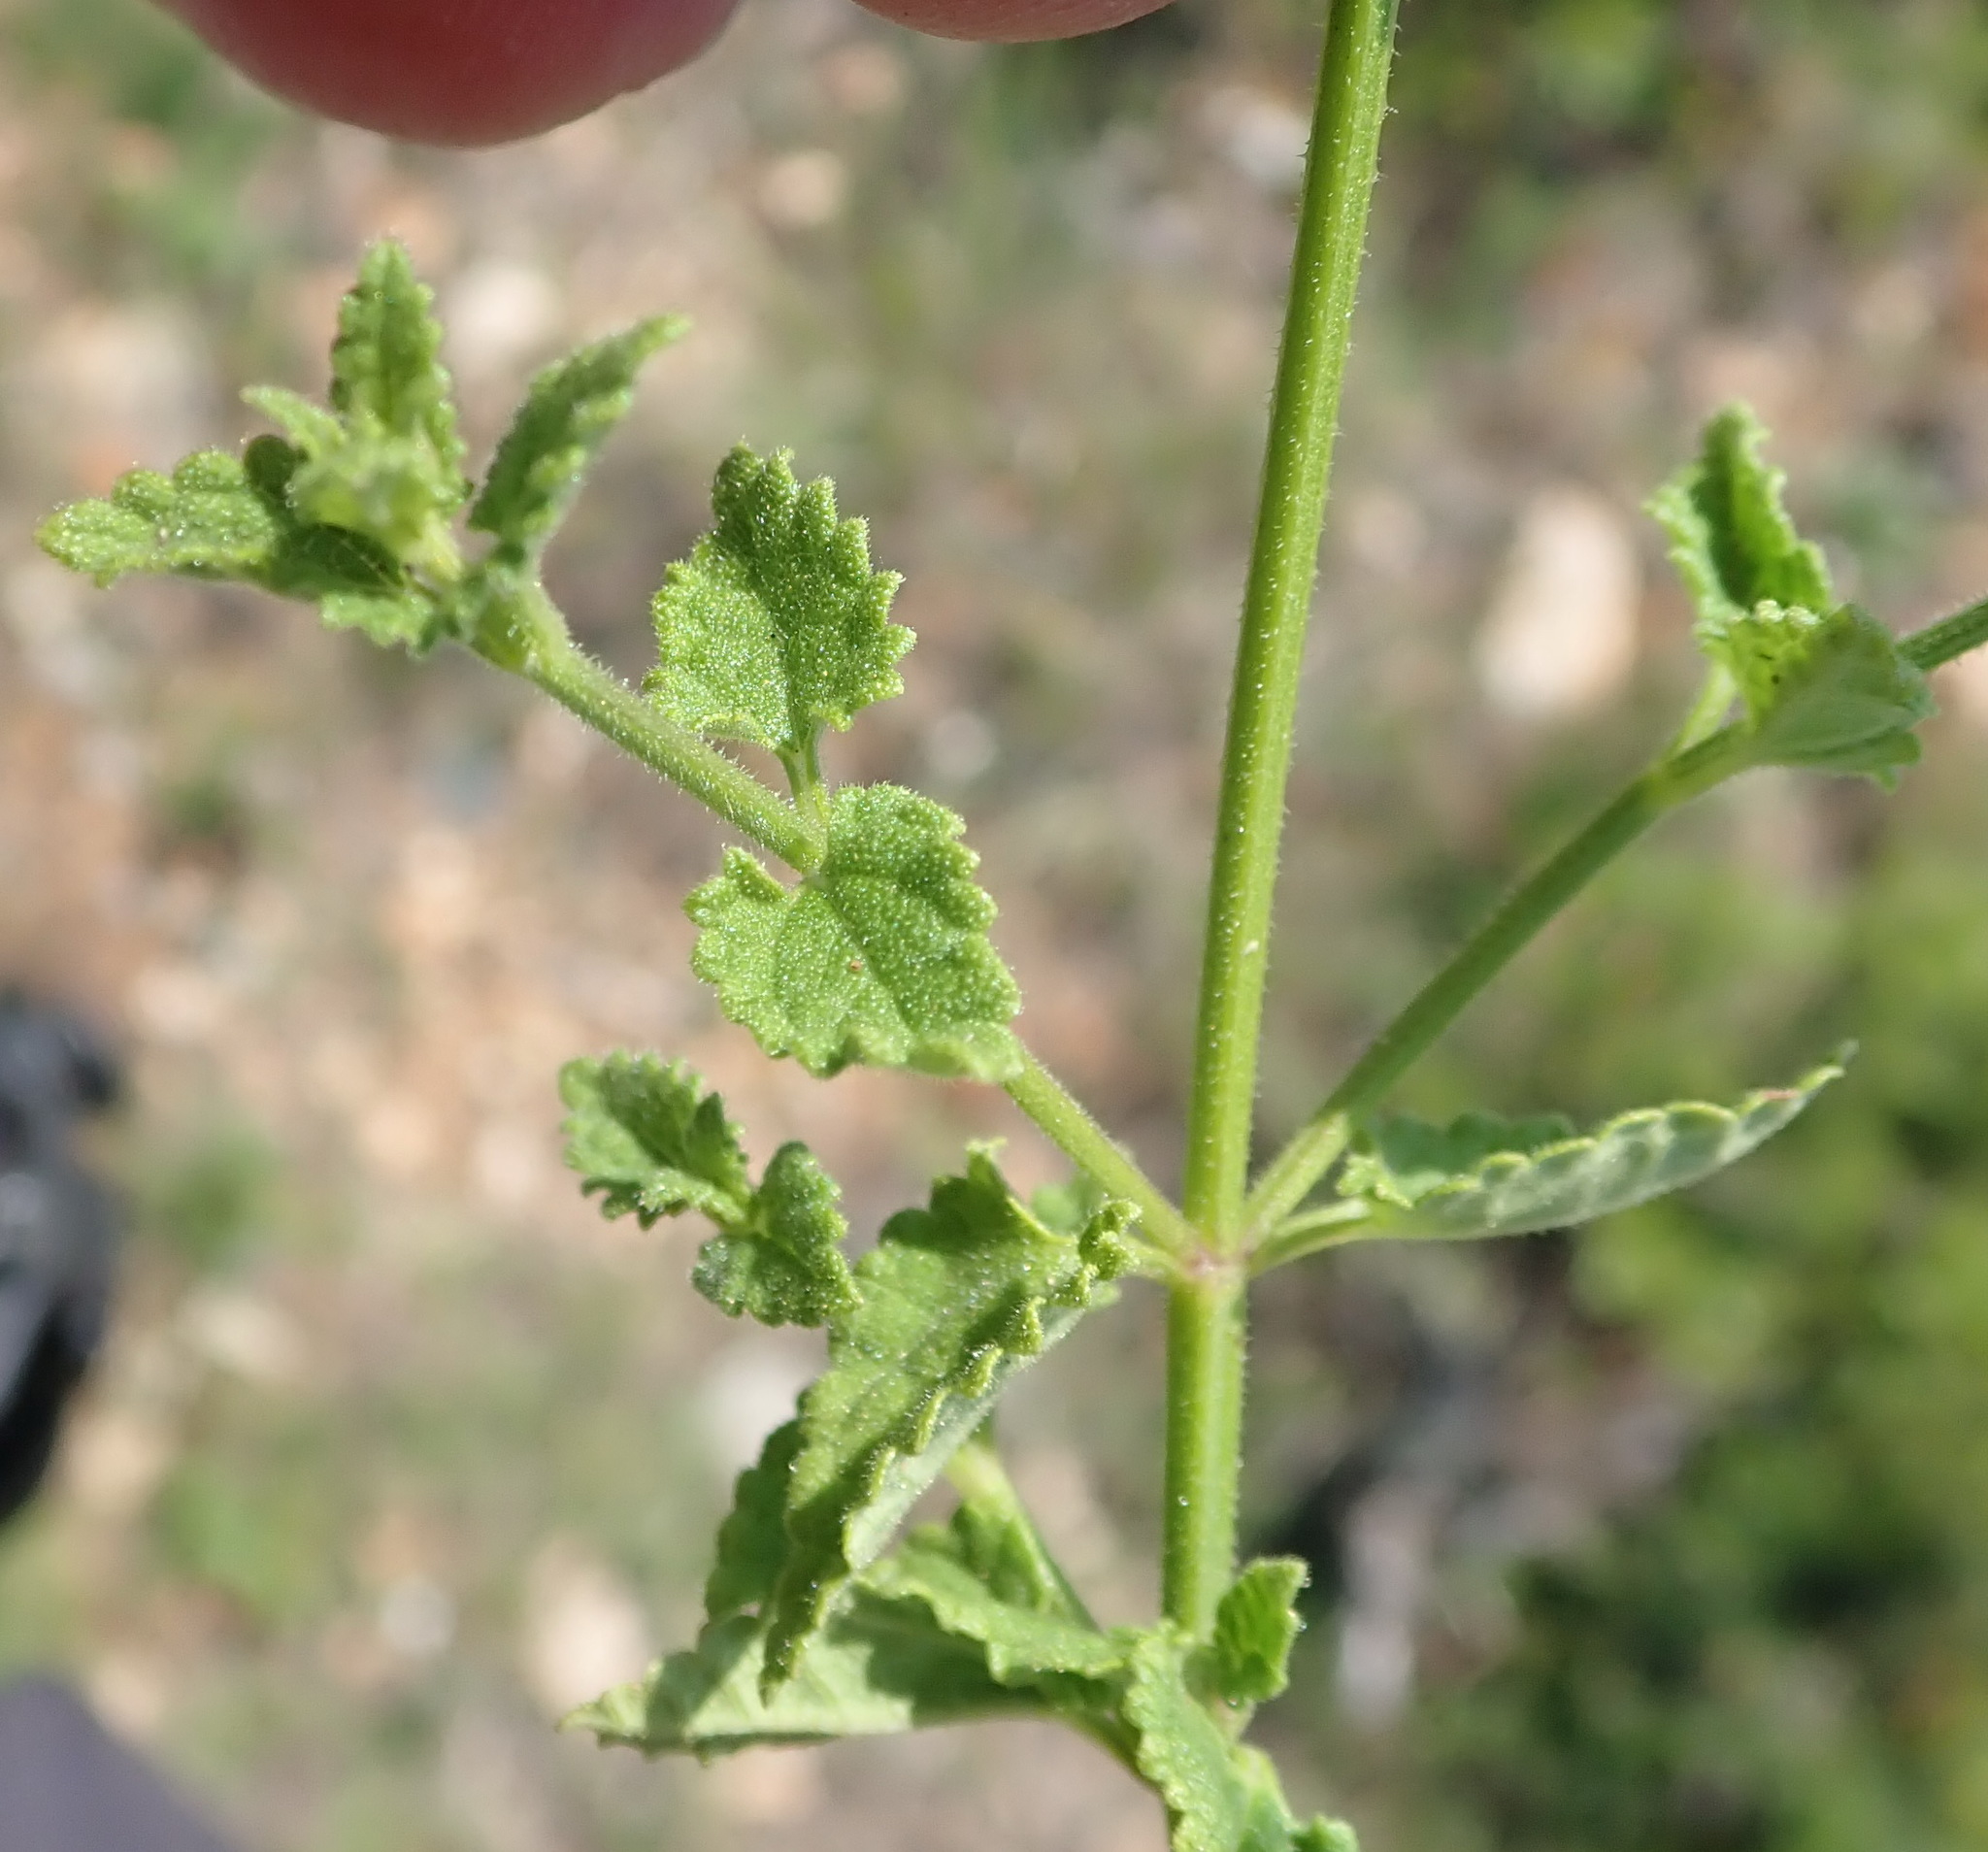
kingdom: Plantae
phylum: Tracheophyta
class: Magnoliopsida
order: Lamiales
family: Lamiaceae
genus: Stachys
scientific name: Stachys aethiopica
